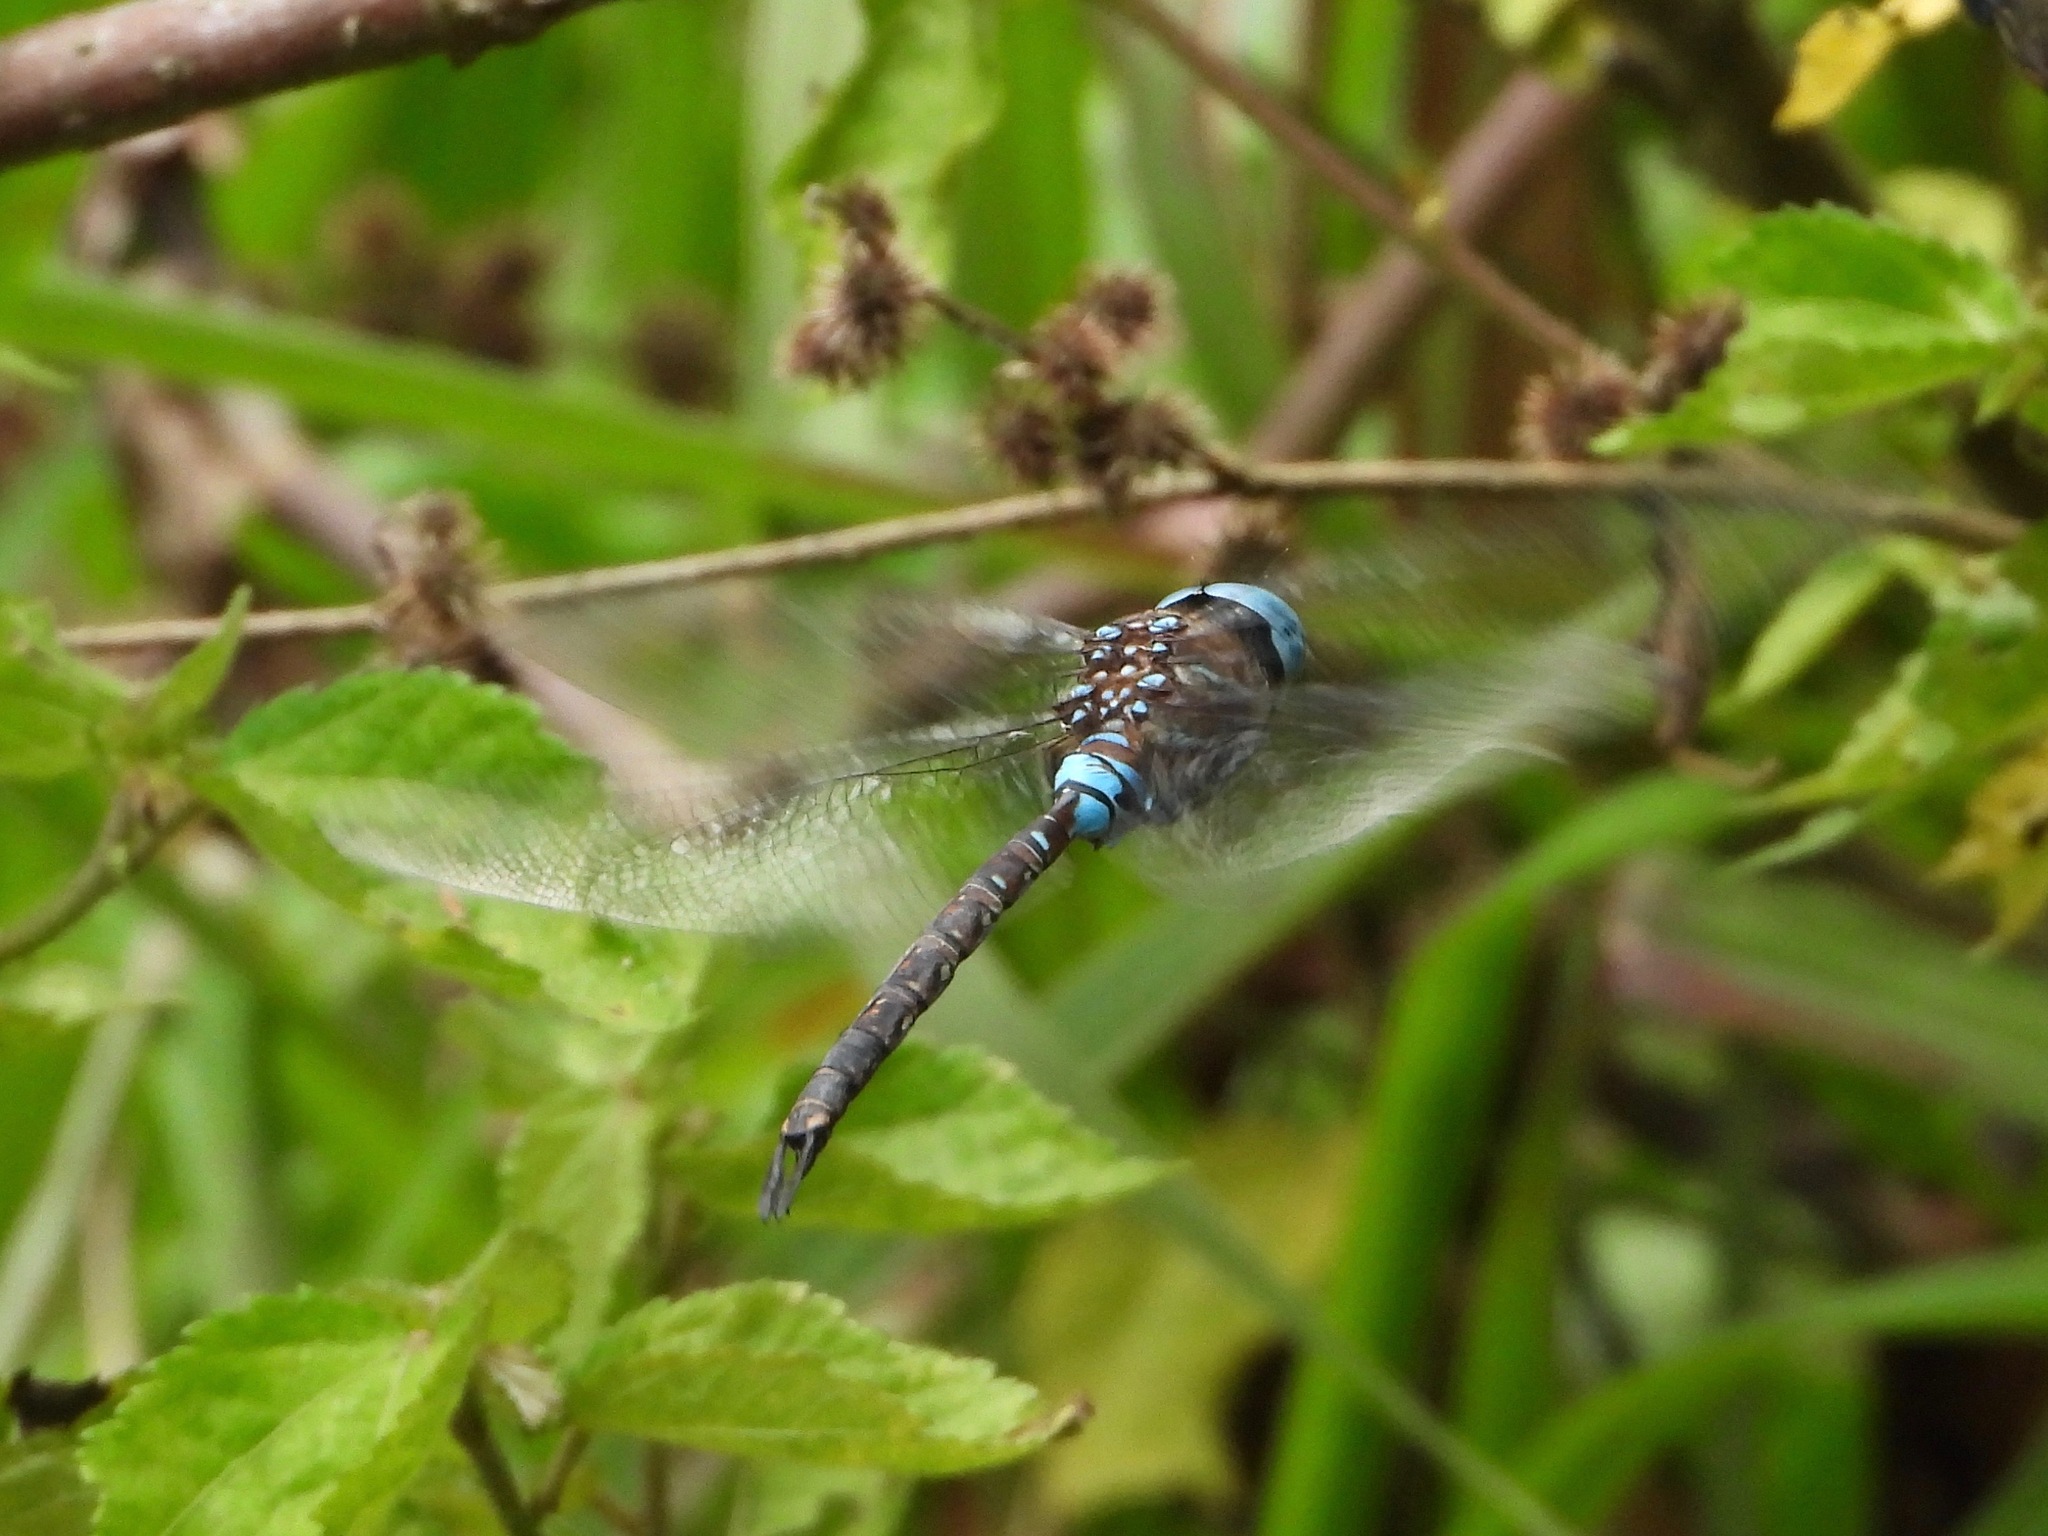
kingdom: Animalia
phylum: Arthropoda
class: Insecta
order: Odonata
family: Aeshnidae
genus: Rhionaeschna
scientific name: Rhionaeschna jalapensis
